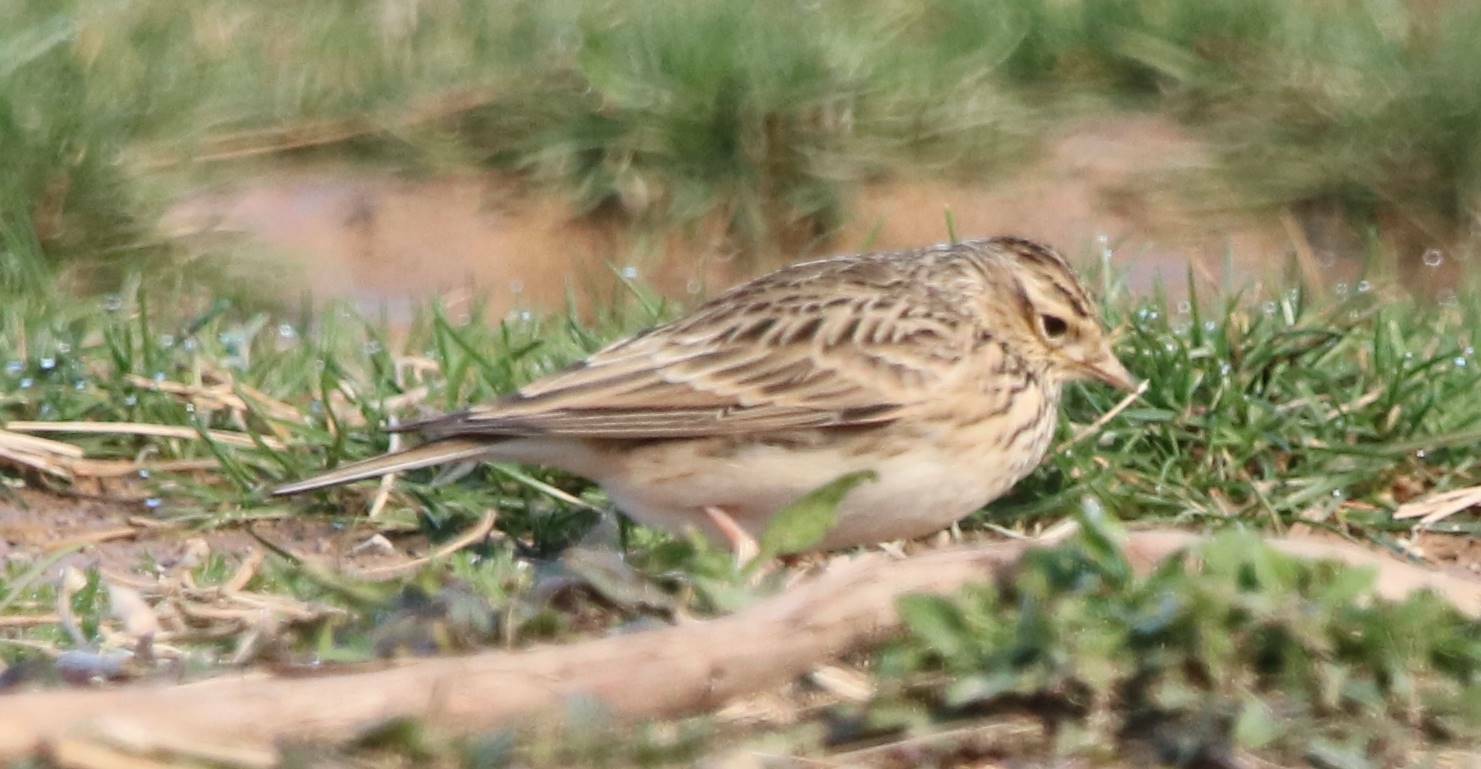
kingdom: Animalia
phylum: Chordata
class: Aves
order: Passeriformes
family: Alaudidae
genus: Alauda
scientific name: Alauda arvensis
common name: Eurasian skylark
